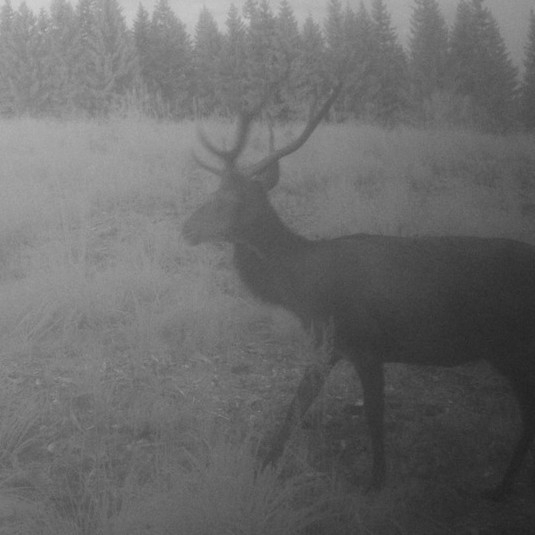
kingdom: Animalia
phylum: Chordata
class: Mammalia
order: Artiodactyla
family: Cervidae
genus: Cervus
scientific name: Cervus elaphus
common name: Red deer
